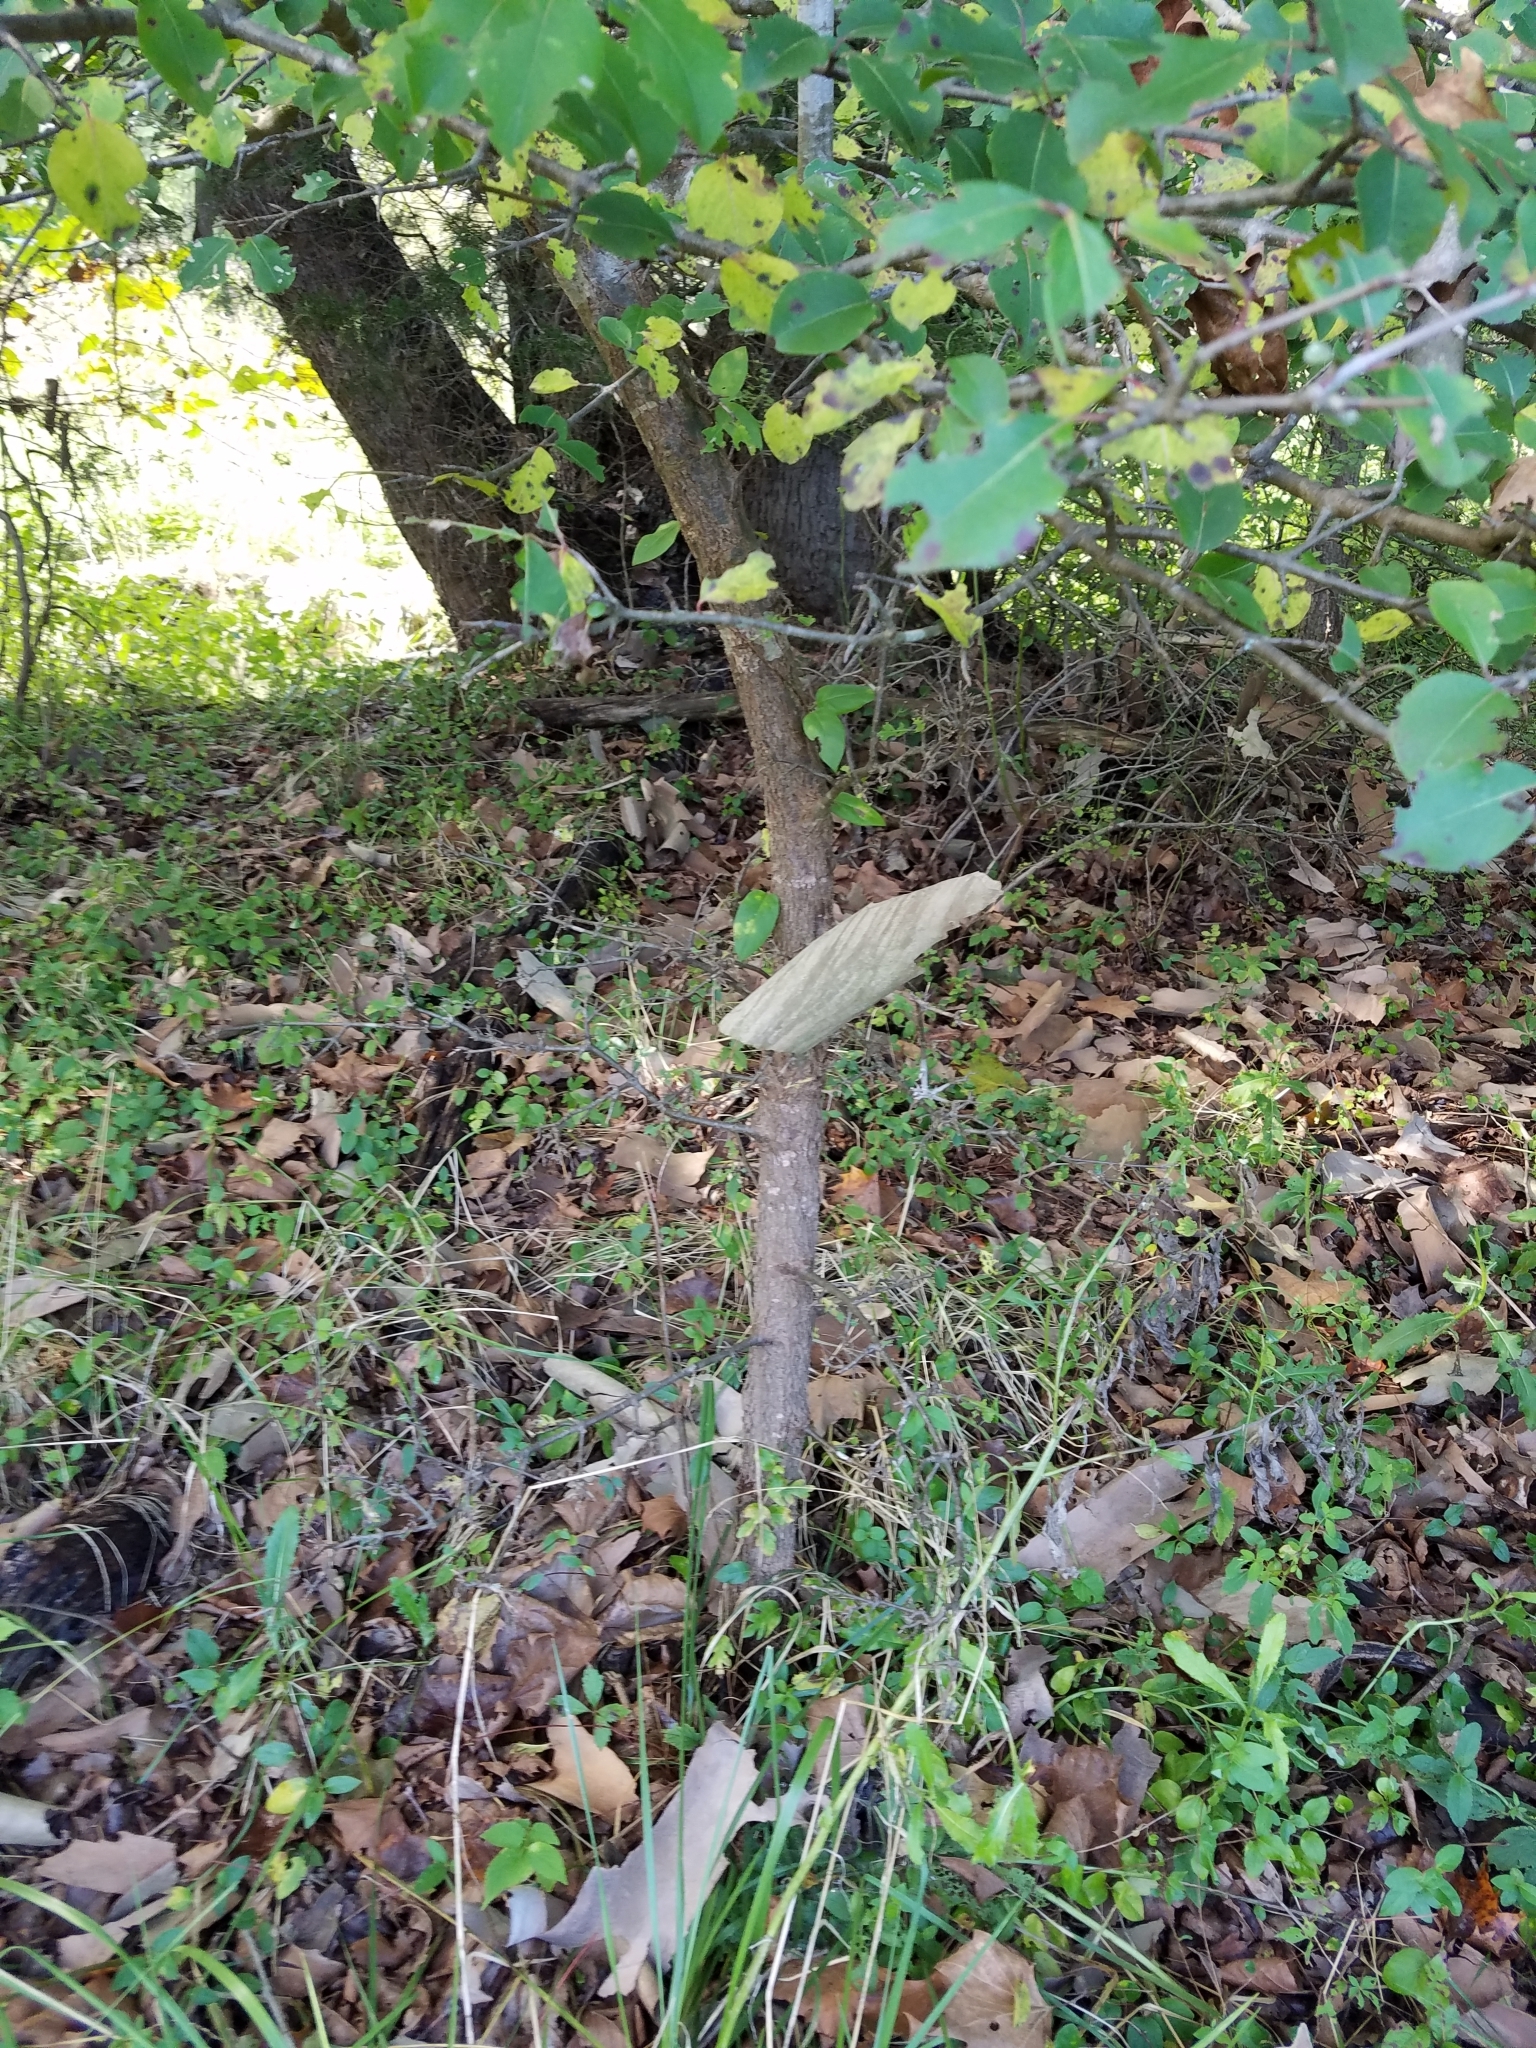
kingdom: Plantae
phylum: Tracheophyta
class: Magnoliopsida
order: Dipsacales
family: Viburnaceae
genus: Viburnum
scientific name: Viburnum prunifolium
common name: Black haw
